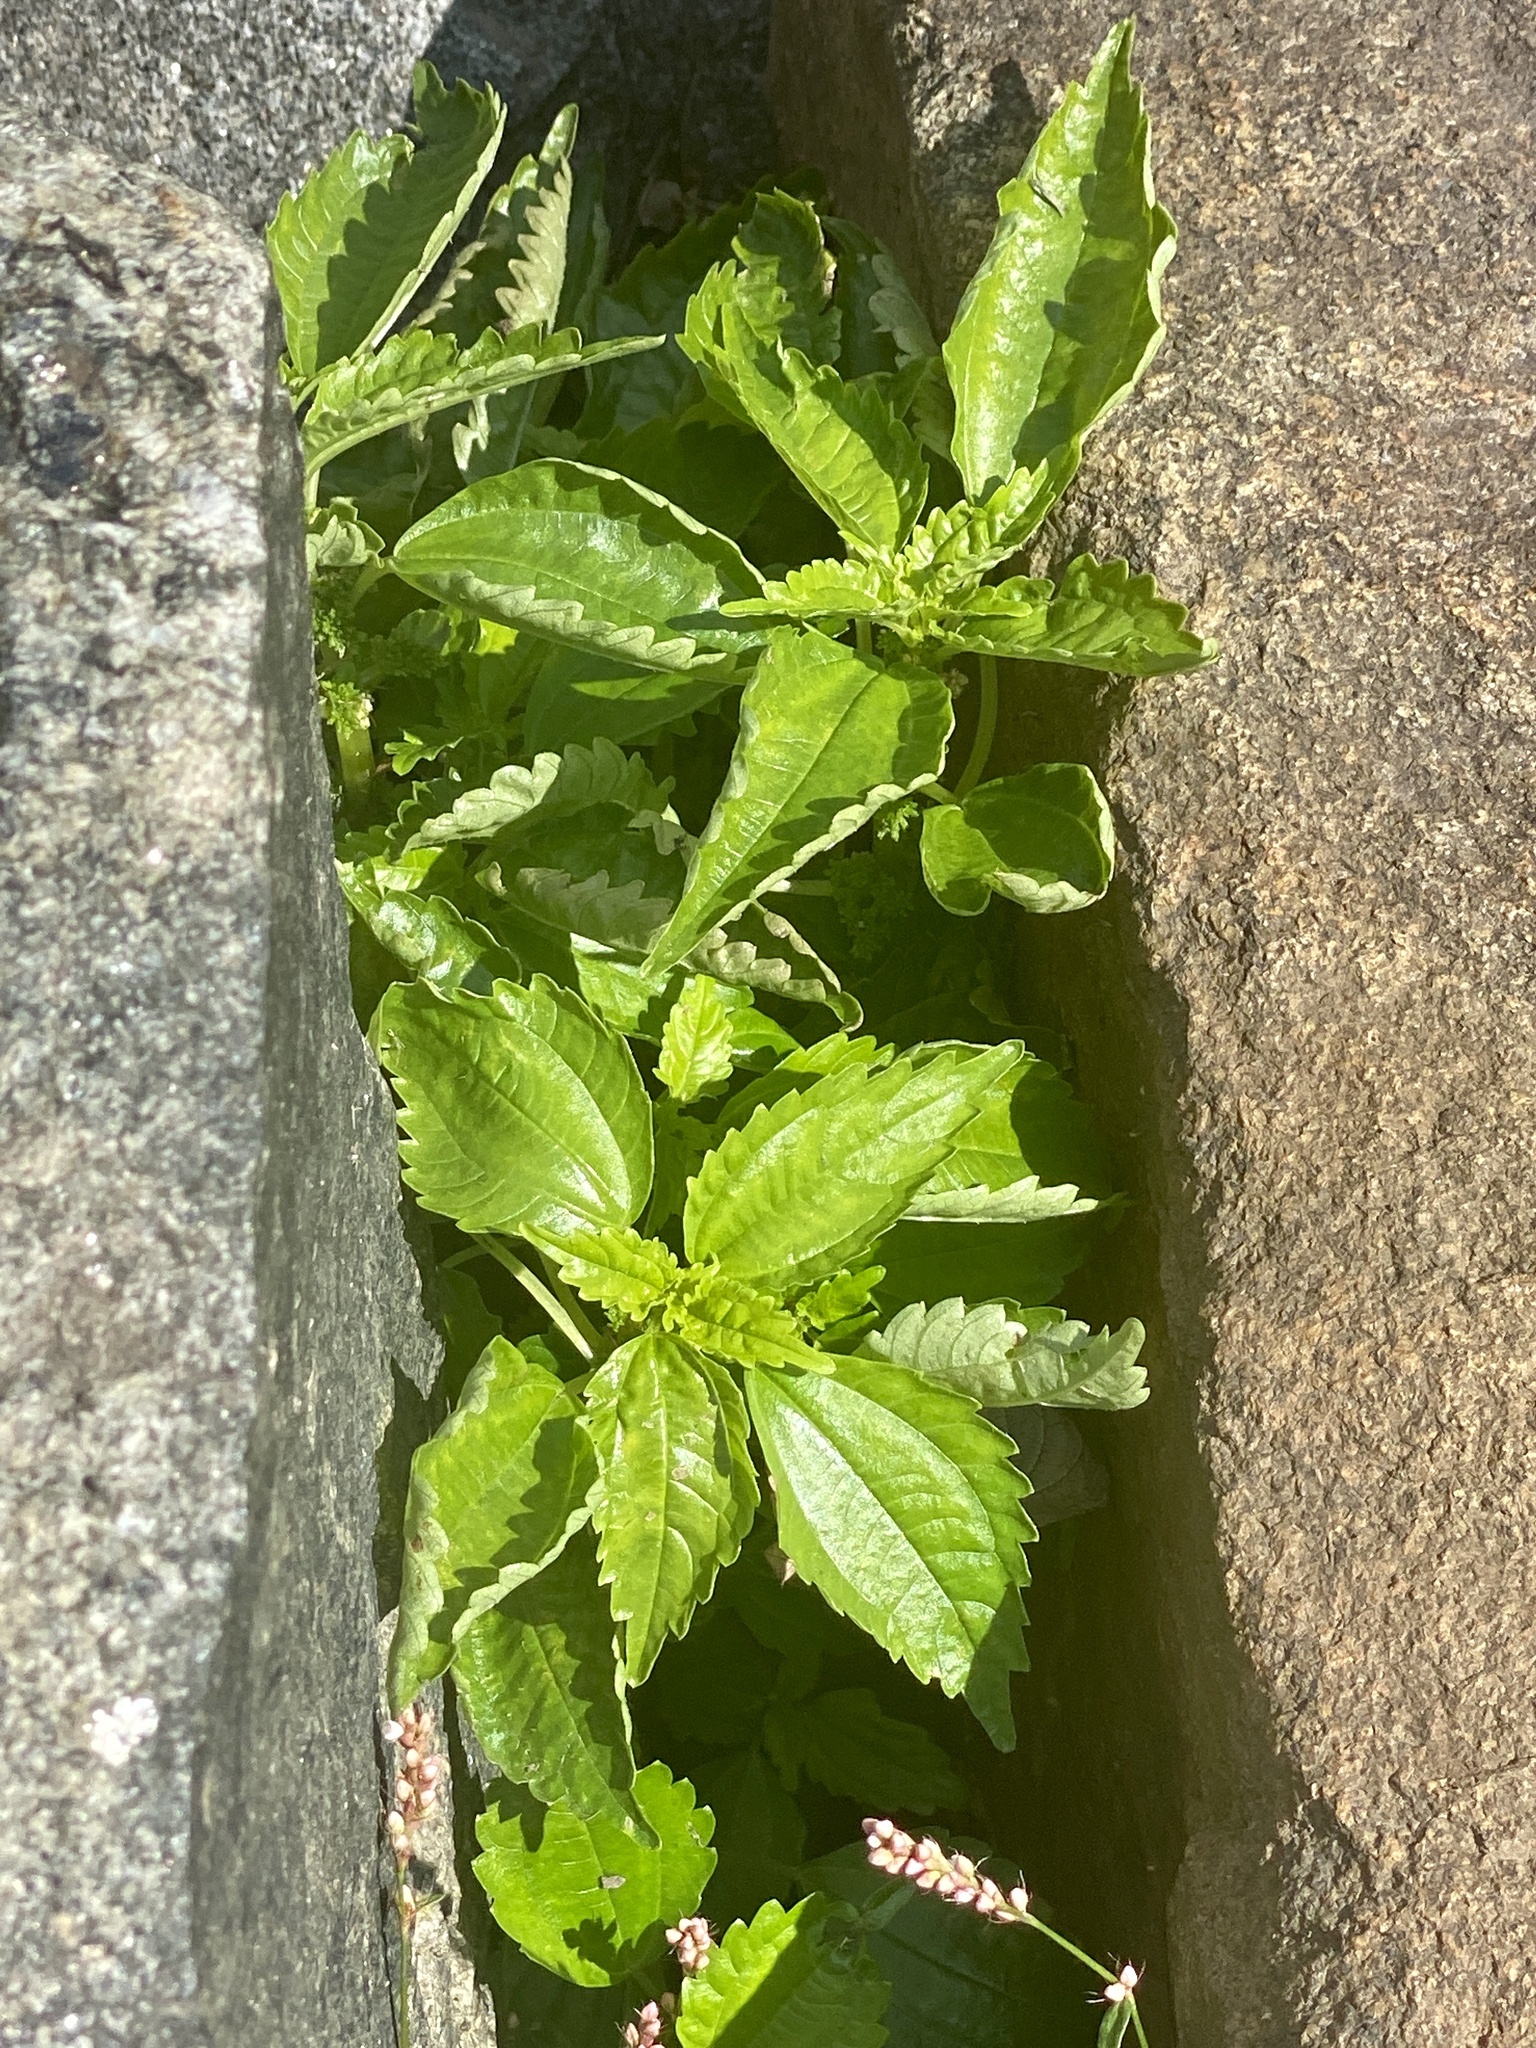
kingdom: Plantae
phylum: Tracheophyta
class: Magnoliopsida
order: Rosales
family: Urticaceae
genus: Pilea
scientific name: Pilea pumila
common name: Clearweed
